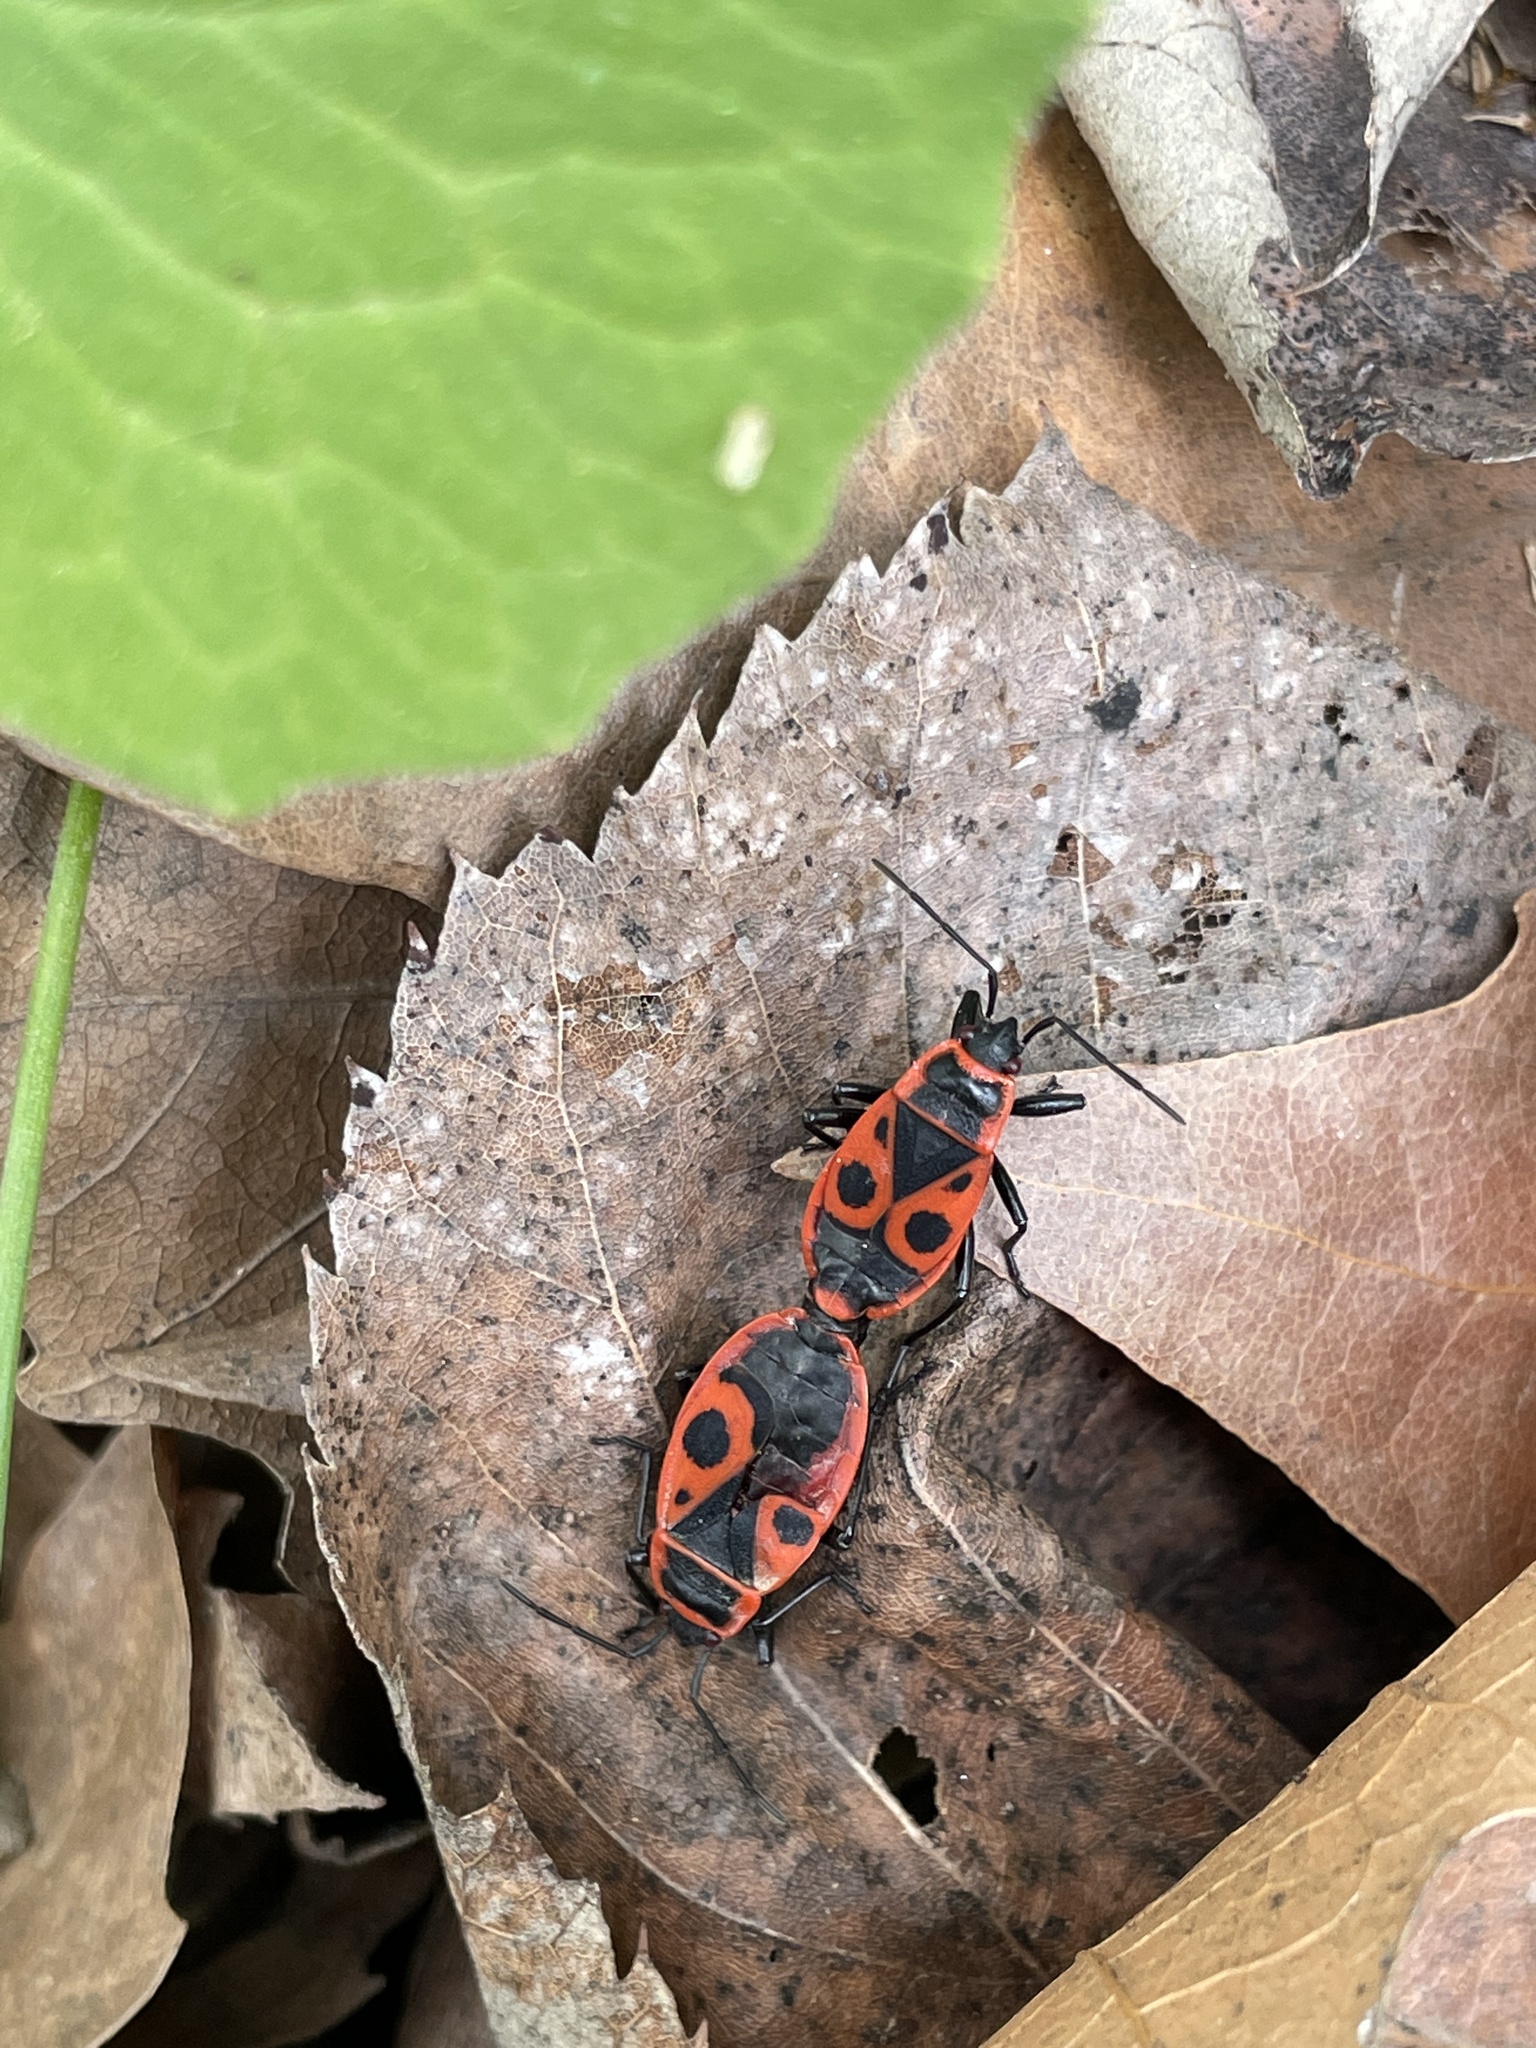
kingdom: Animalia
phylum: Arthropoda
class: Insecta
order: Hemiptera
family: Pyrrhocoridae
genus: Pyrrhocoris
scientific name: Pyrrhocoris apterus
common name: Firebug
